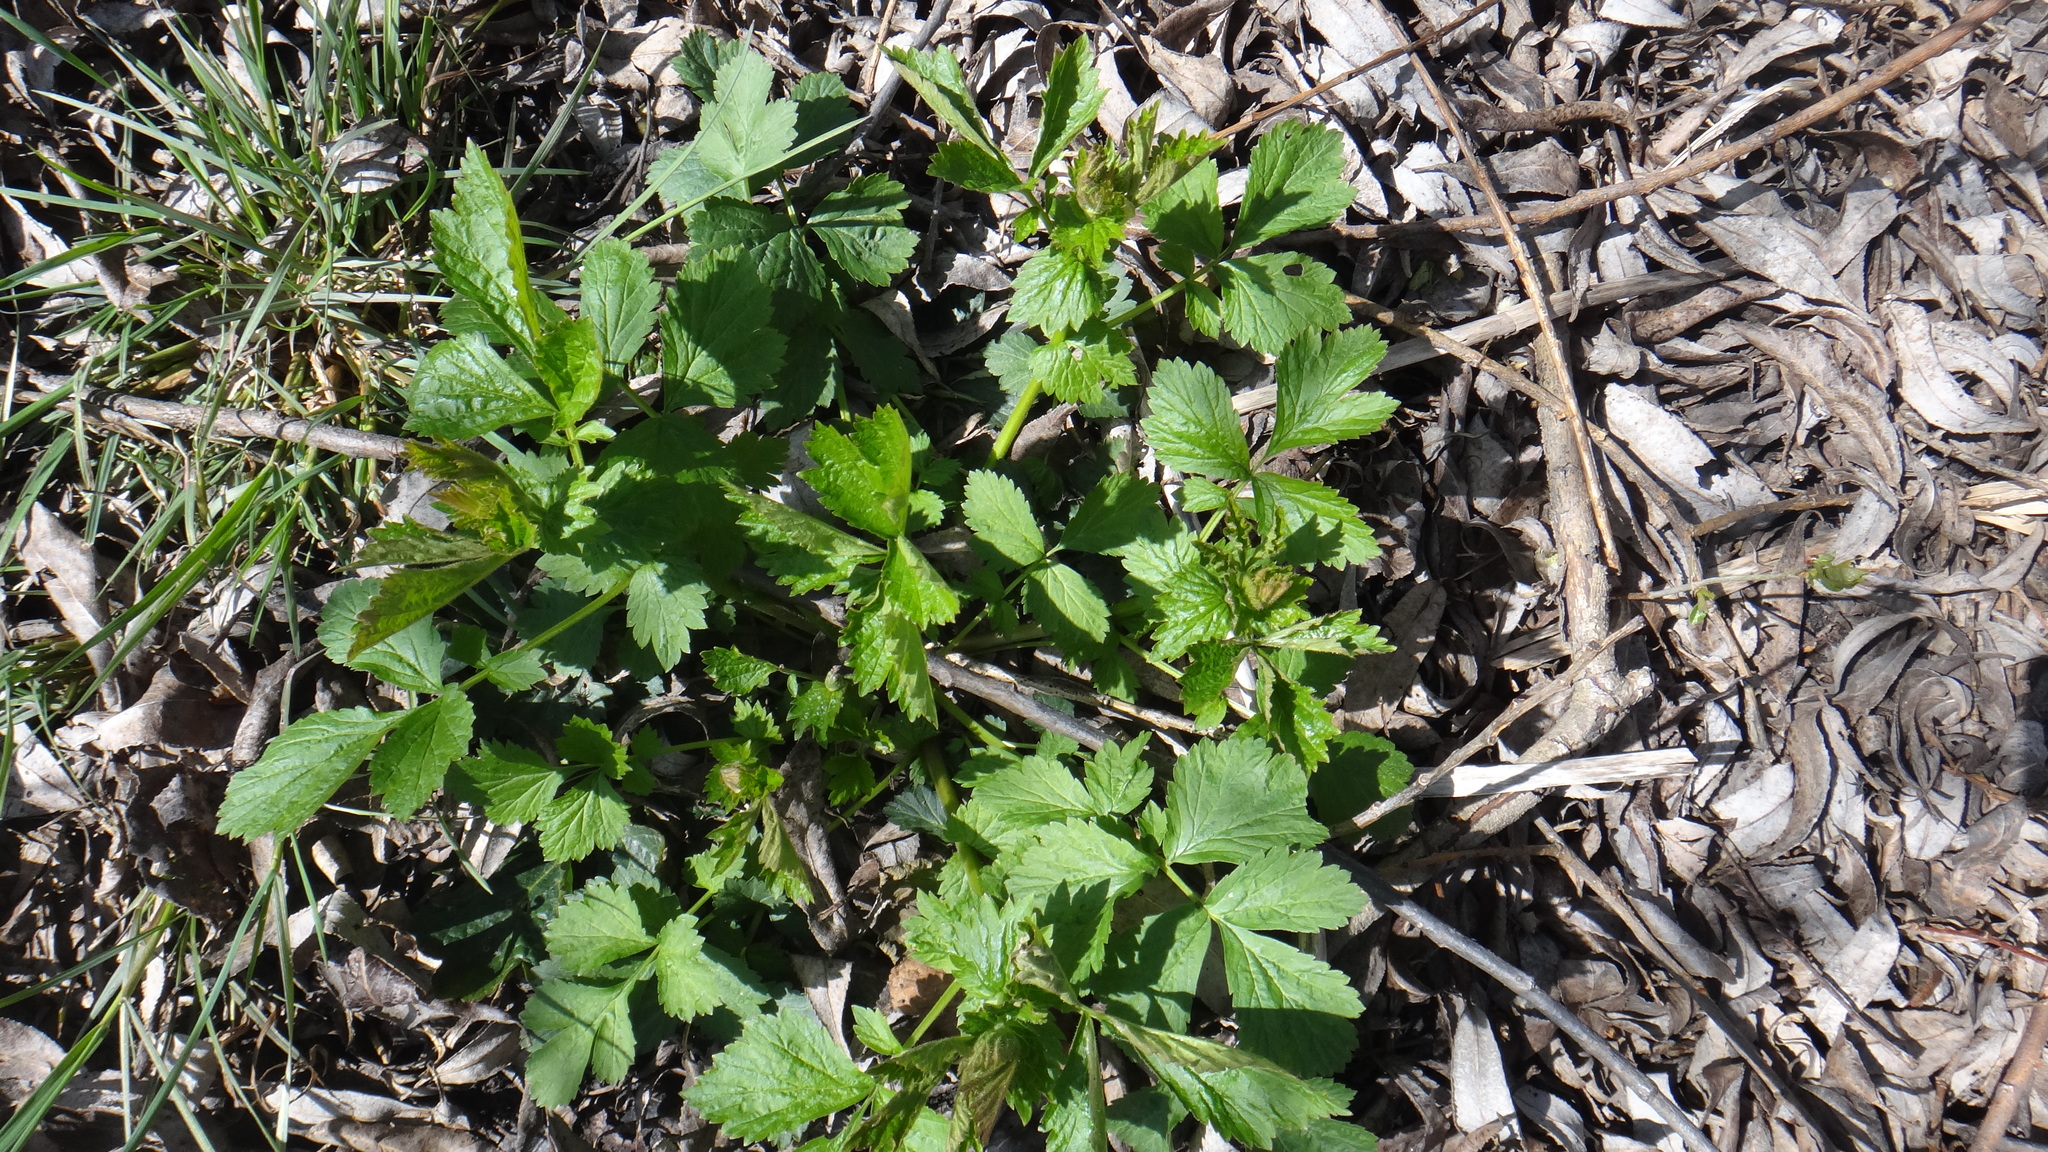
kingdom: Plantae
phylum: Tracheophyta
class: Magnoliopsida
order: Rosales
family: Rosaceae
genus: Geum
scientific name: Geum urbanum
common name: Wood avens
